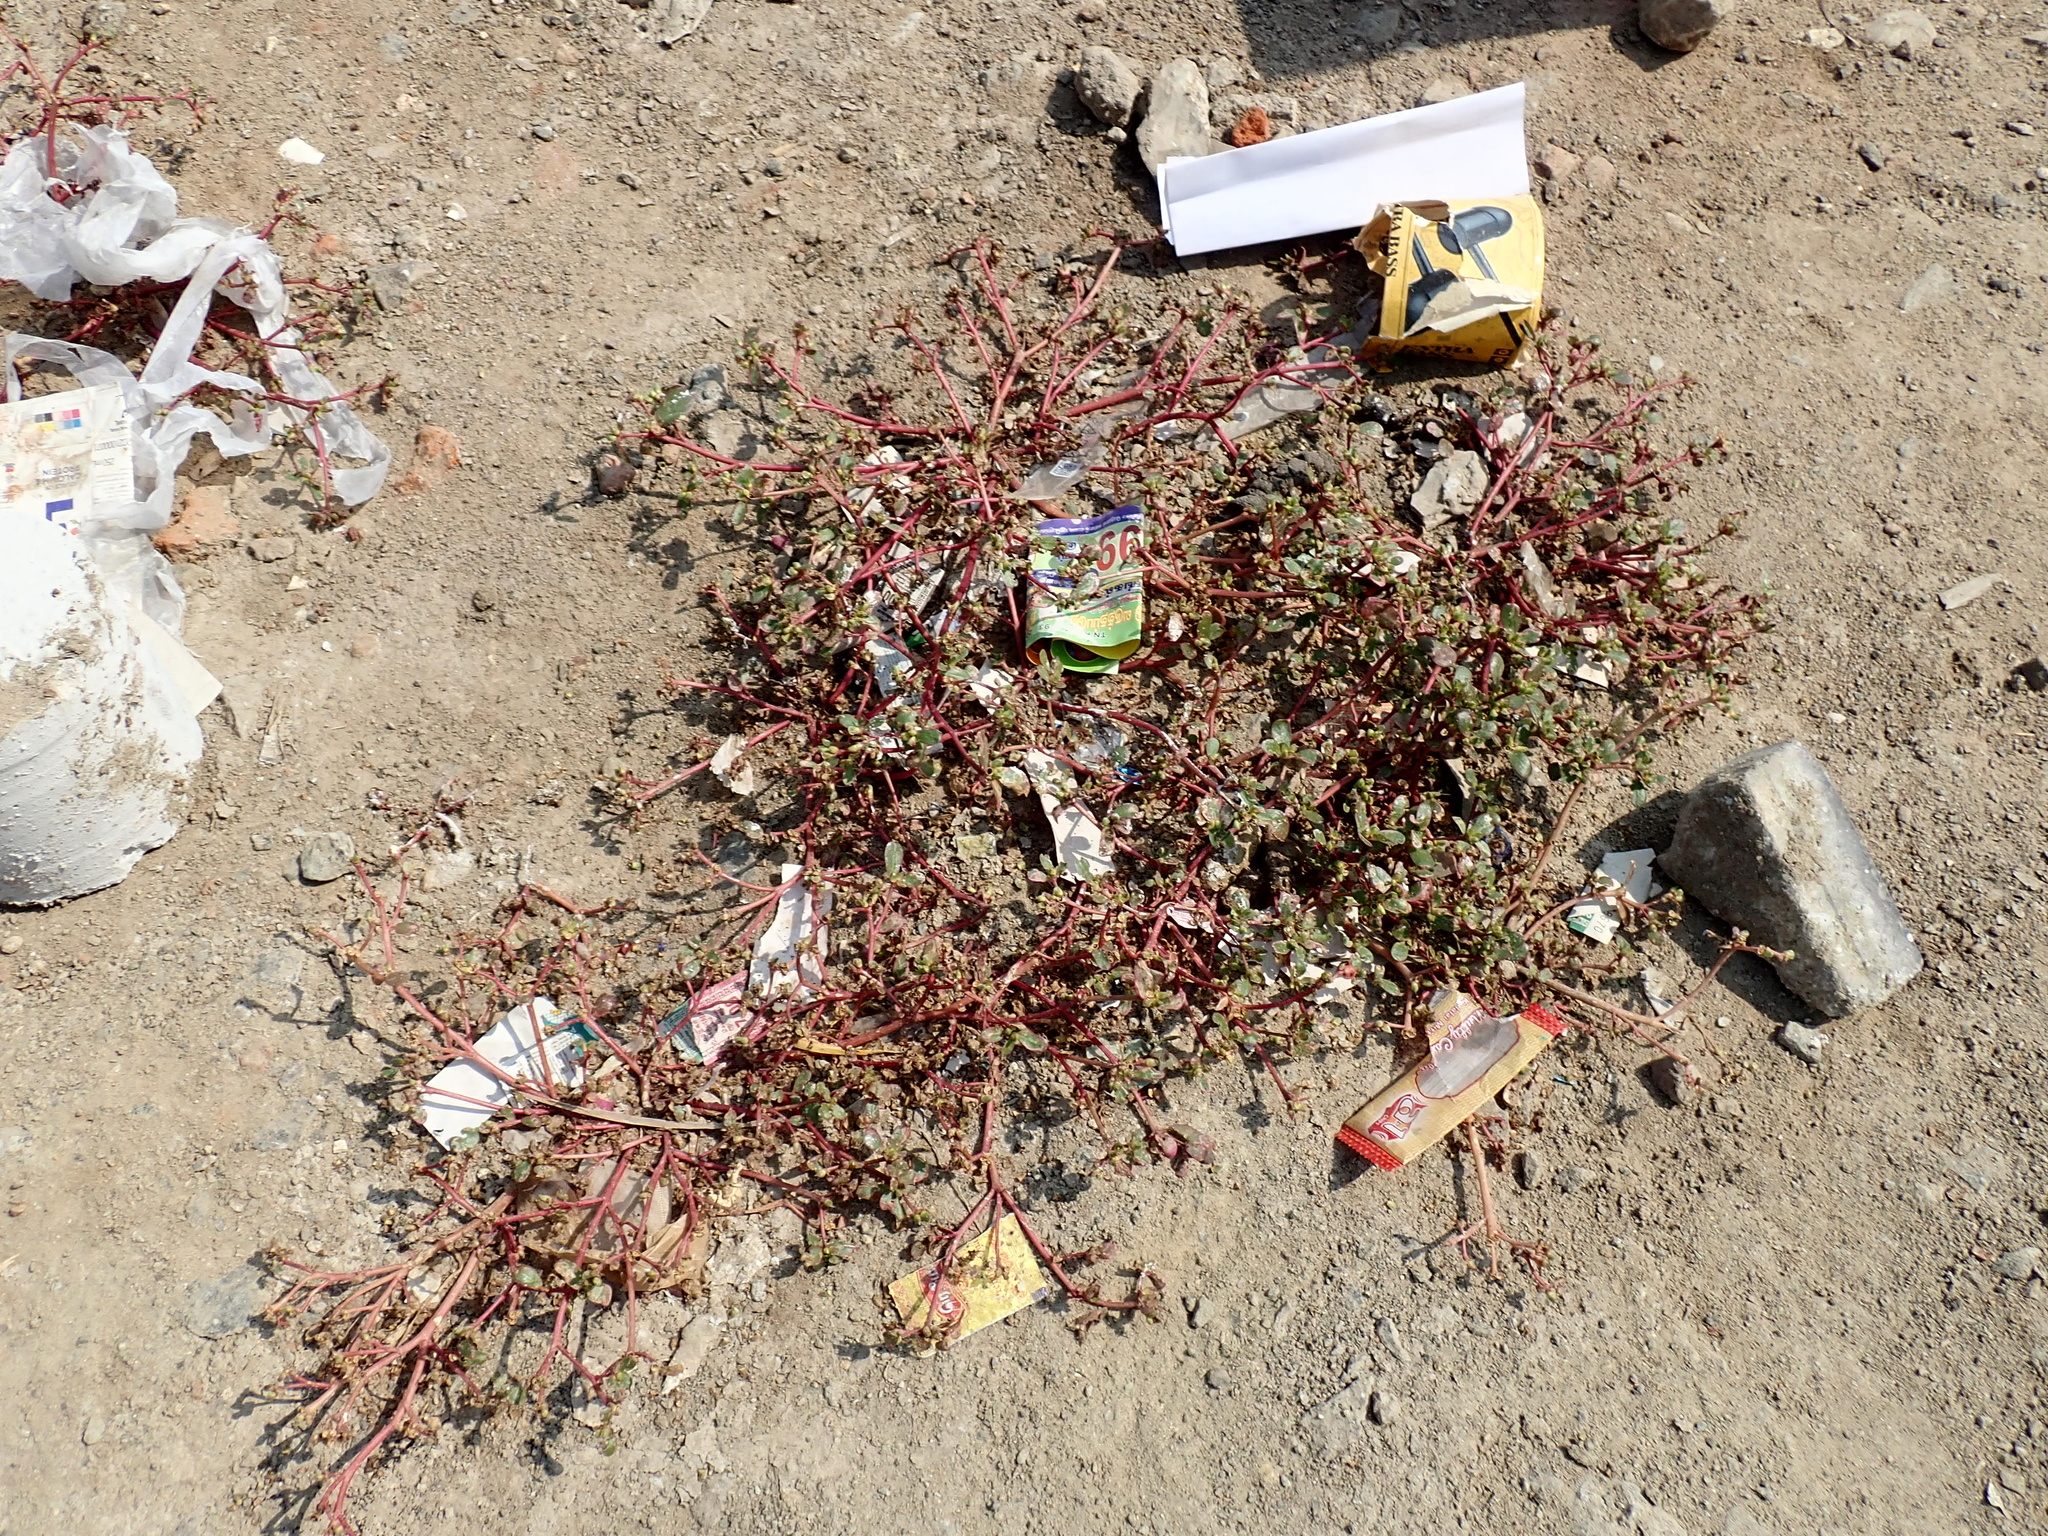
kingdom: Plantae
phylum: Tracheophyta
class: Magnoliopsida
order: Caryophyllales
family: Portulacaceae
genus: Portulaca
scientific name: Portulaca oleracea
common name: Common purslane
